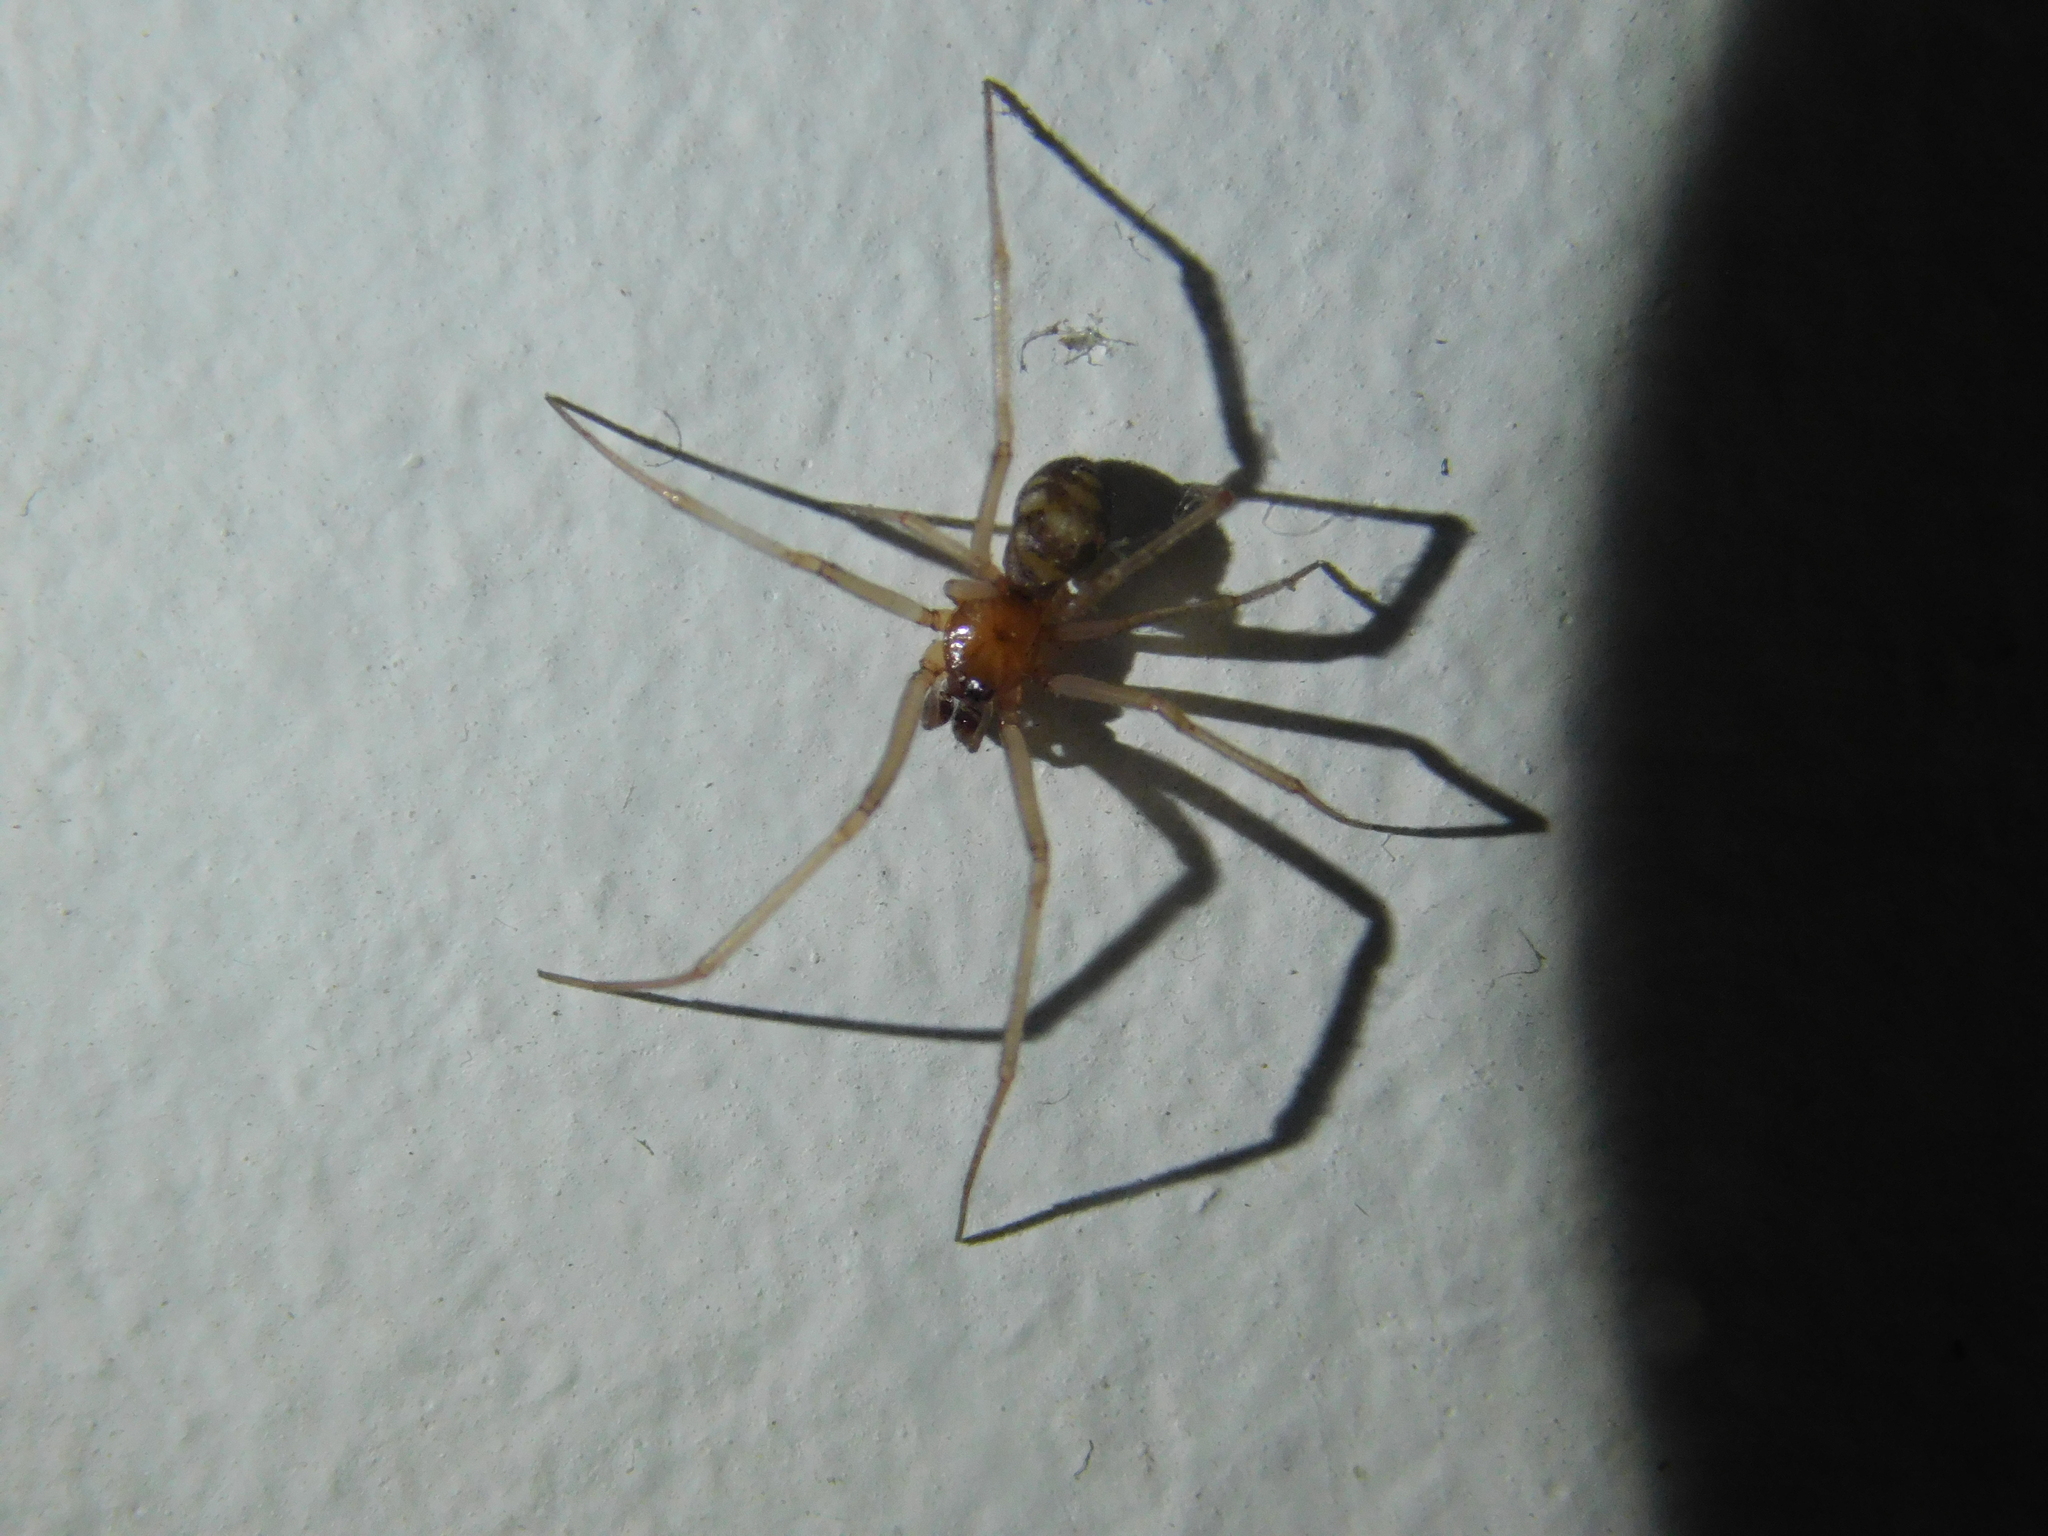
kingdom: Animalia
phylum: Arthropoda
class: Arachnida
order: Araneae
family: Theridiidae
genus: Steatoda
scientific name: Steatoda grossa
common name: False black widow
